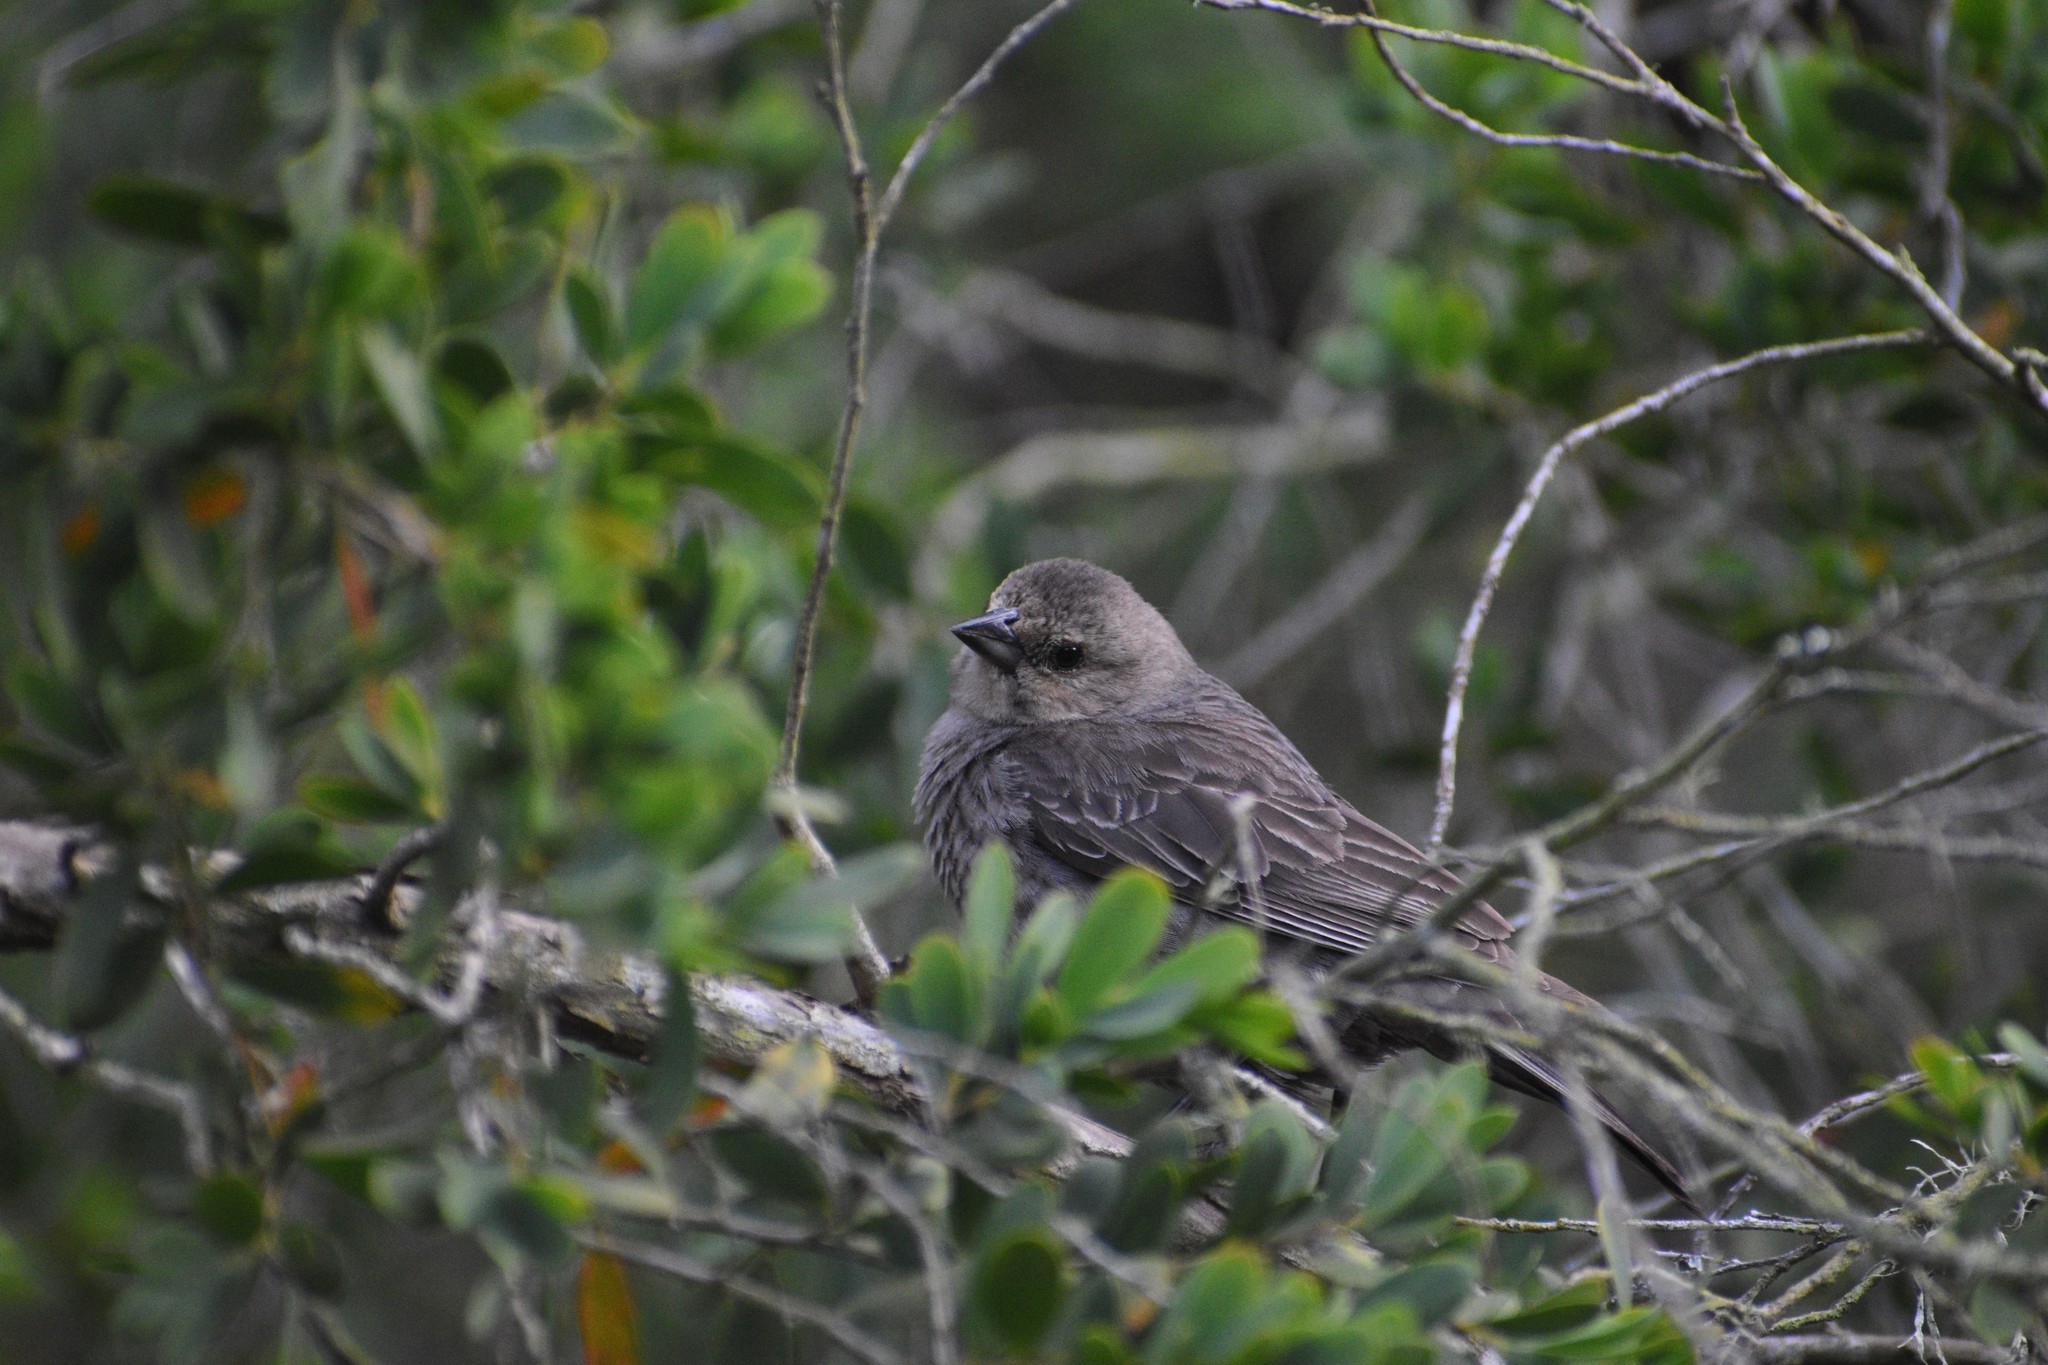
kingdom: Animalia
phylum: Chordata
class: Aves
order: Passeriformes
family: Icteridae
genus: Molothrus
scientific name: Molothrus ater
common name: Brown-headed cowbird
